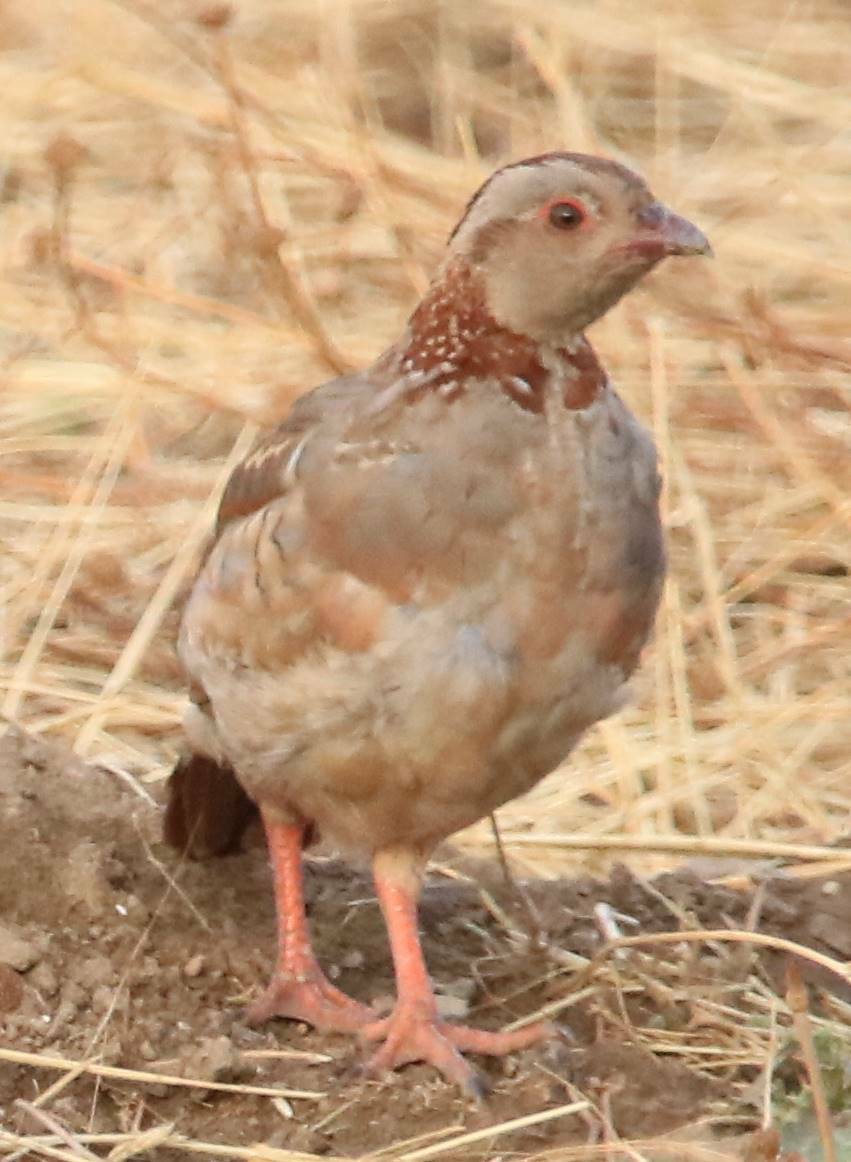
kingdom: Animalia
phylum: Chordata
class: Aves
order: Galliformes
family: Phasianidae
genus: Alectoris
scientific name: Alectoris barbara
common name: Barbary partridge
